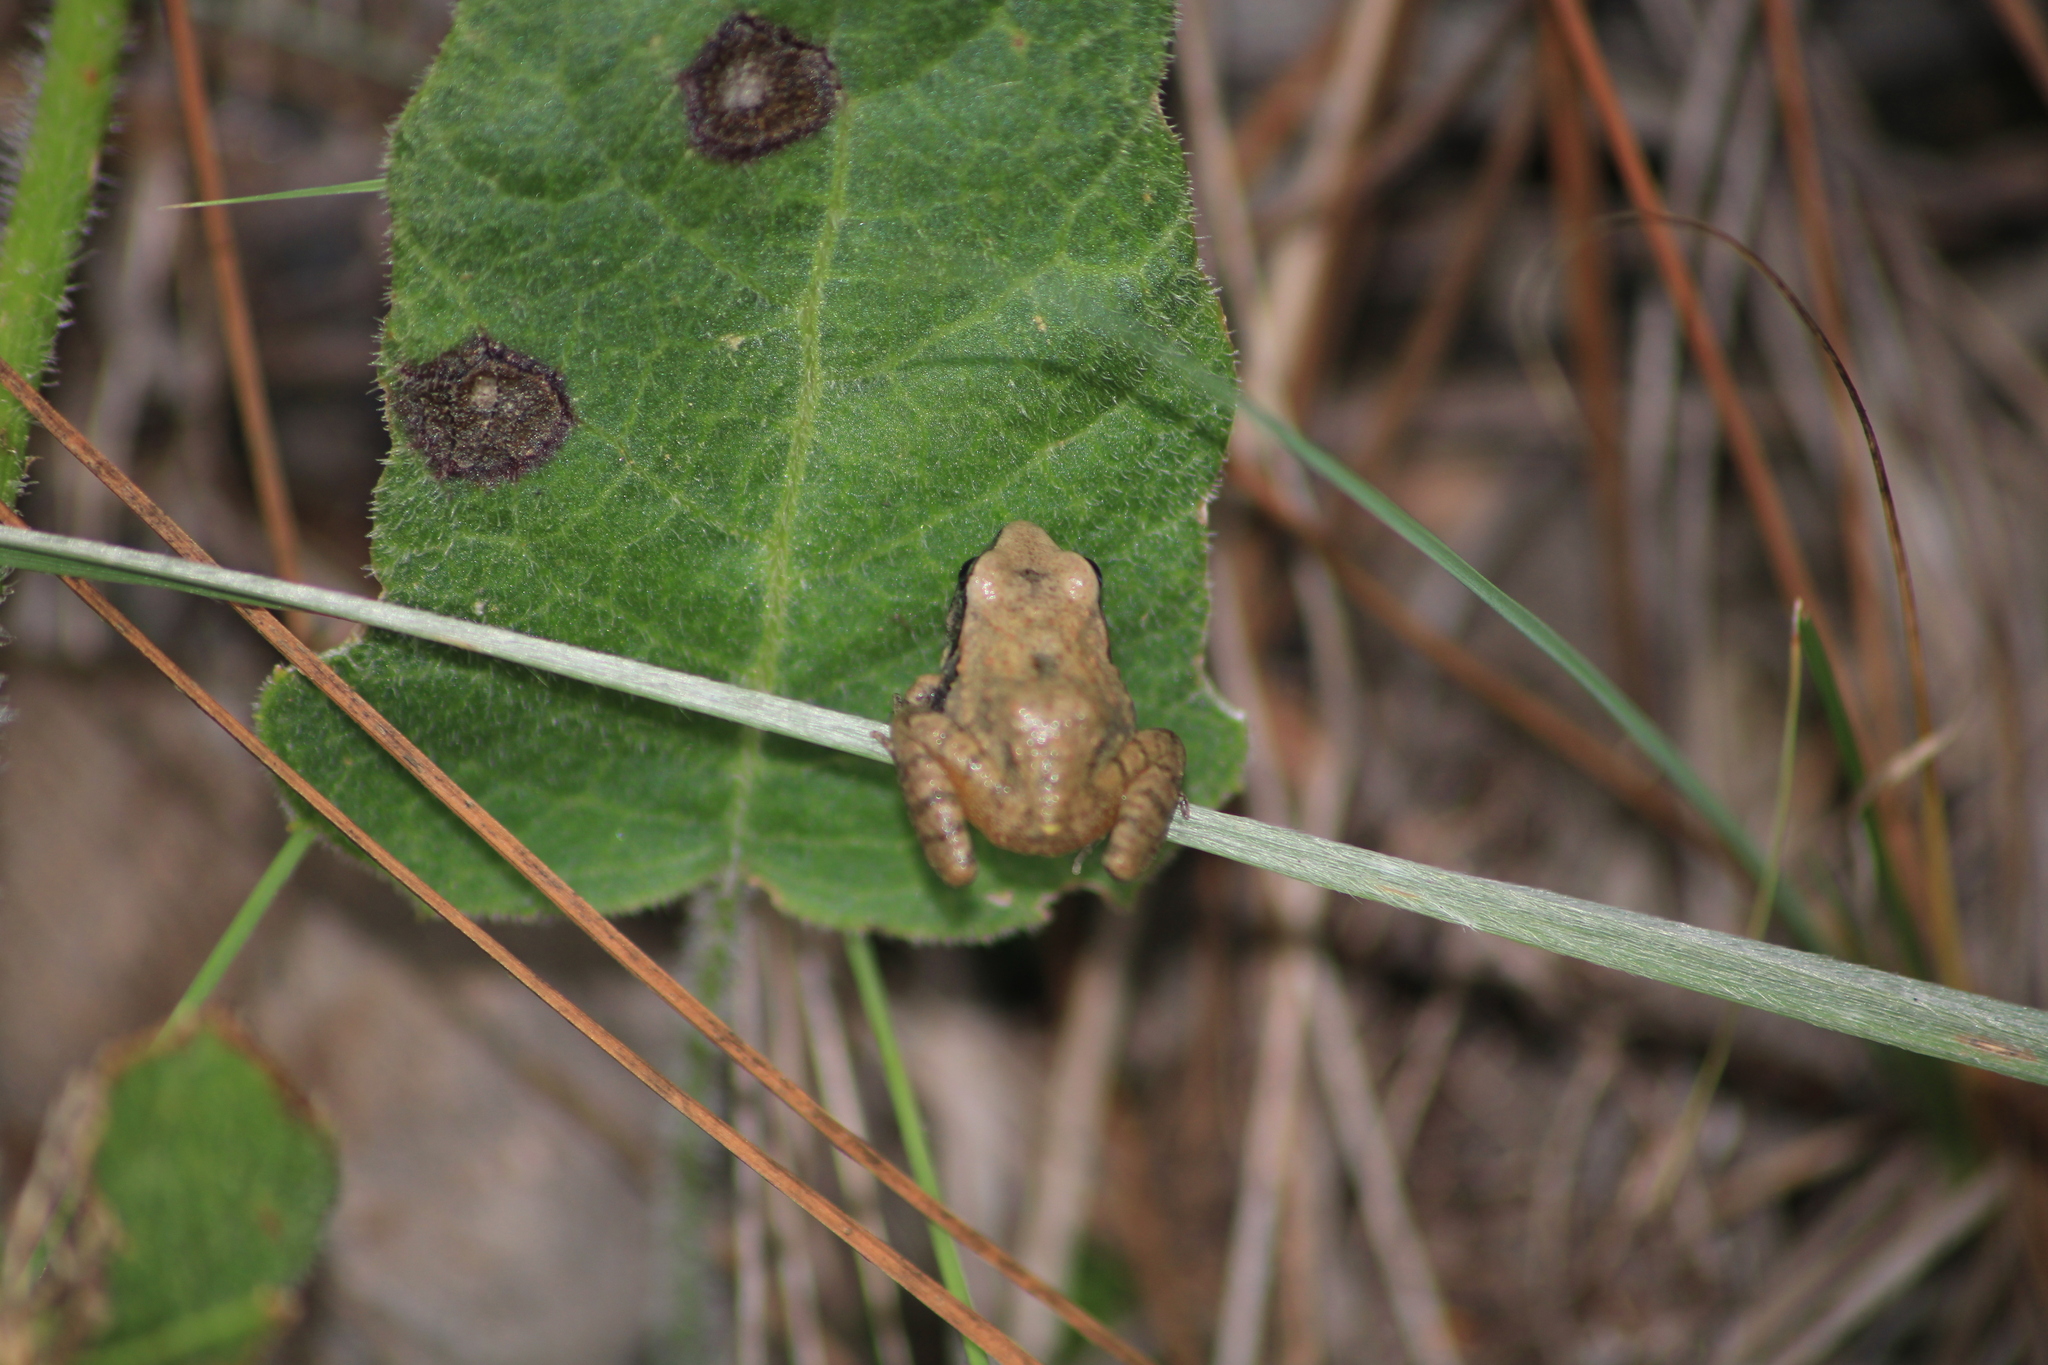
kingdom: Animalia
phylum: Chordata
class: Amphibia
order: Anura
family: Craugastoridae
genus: Craugastor
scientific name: Craugastor occidentalis
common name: Taylor's barking frog
